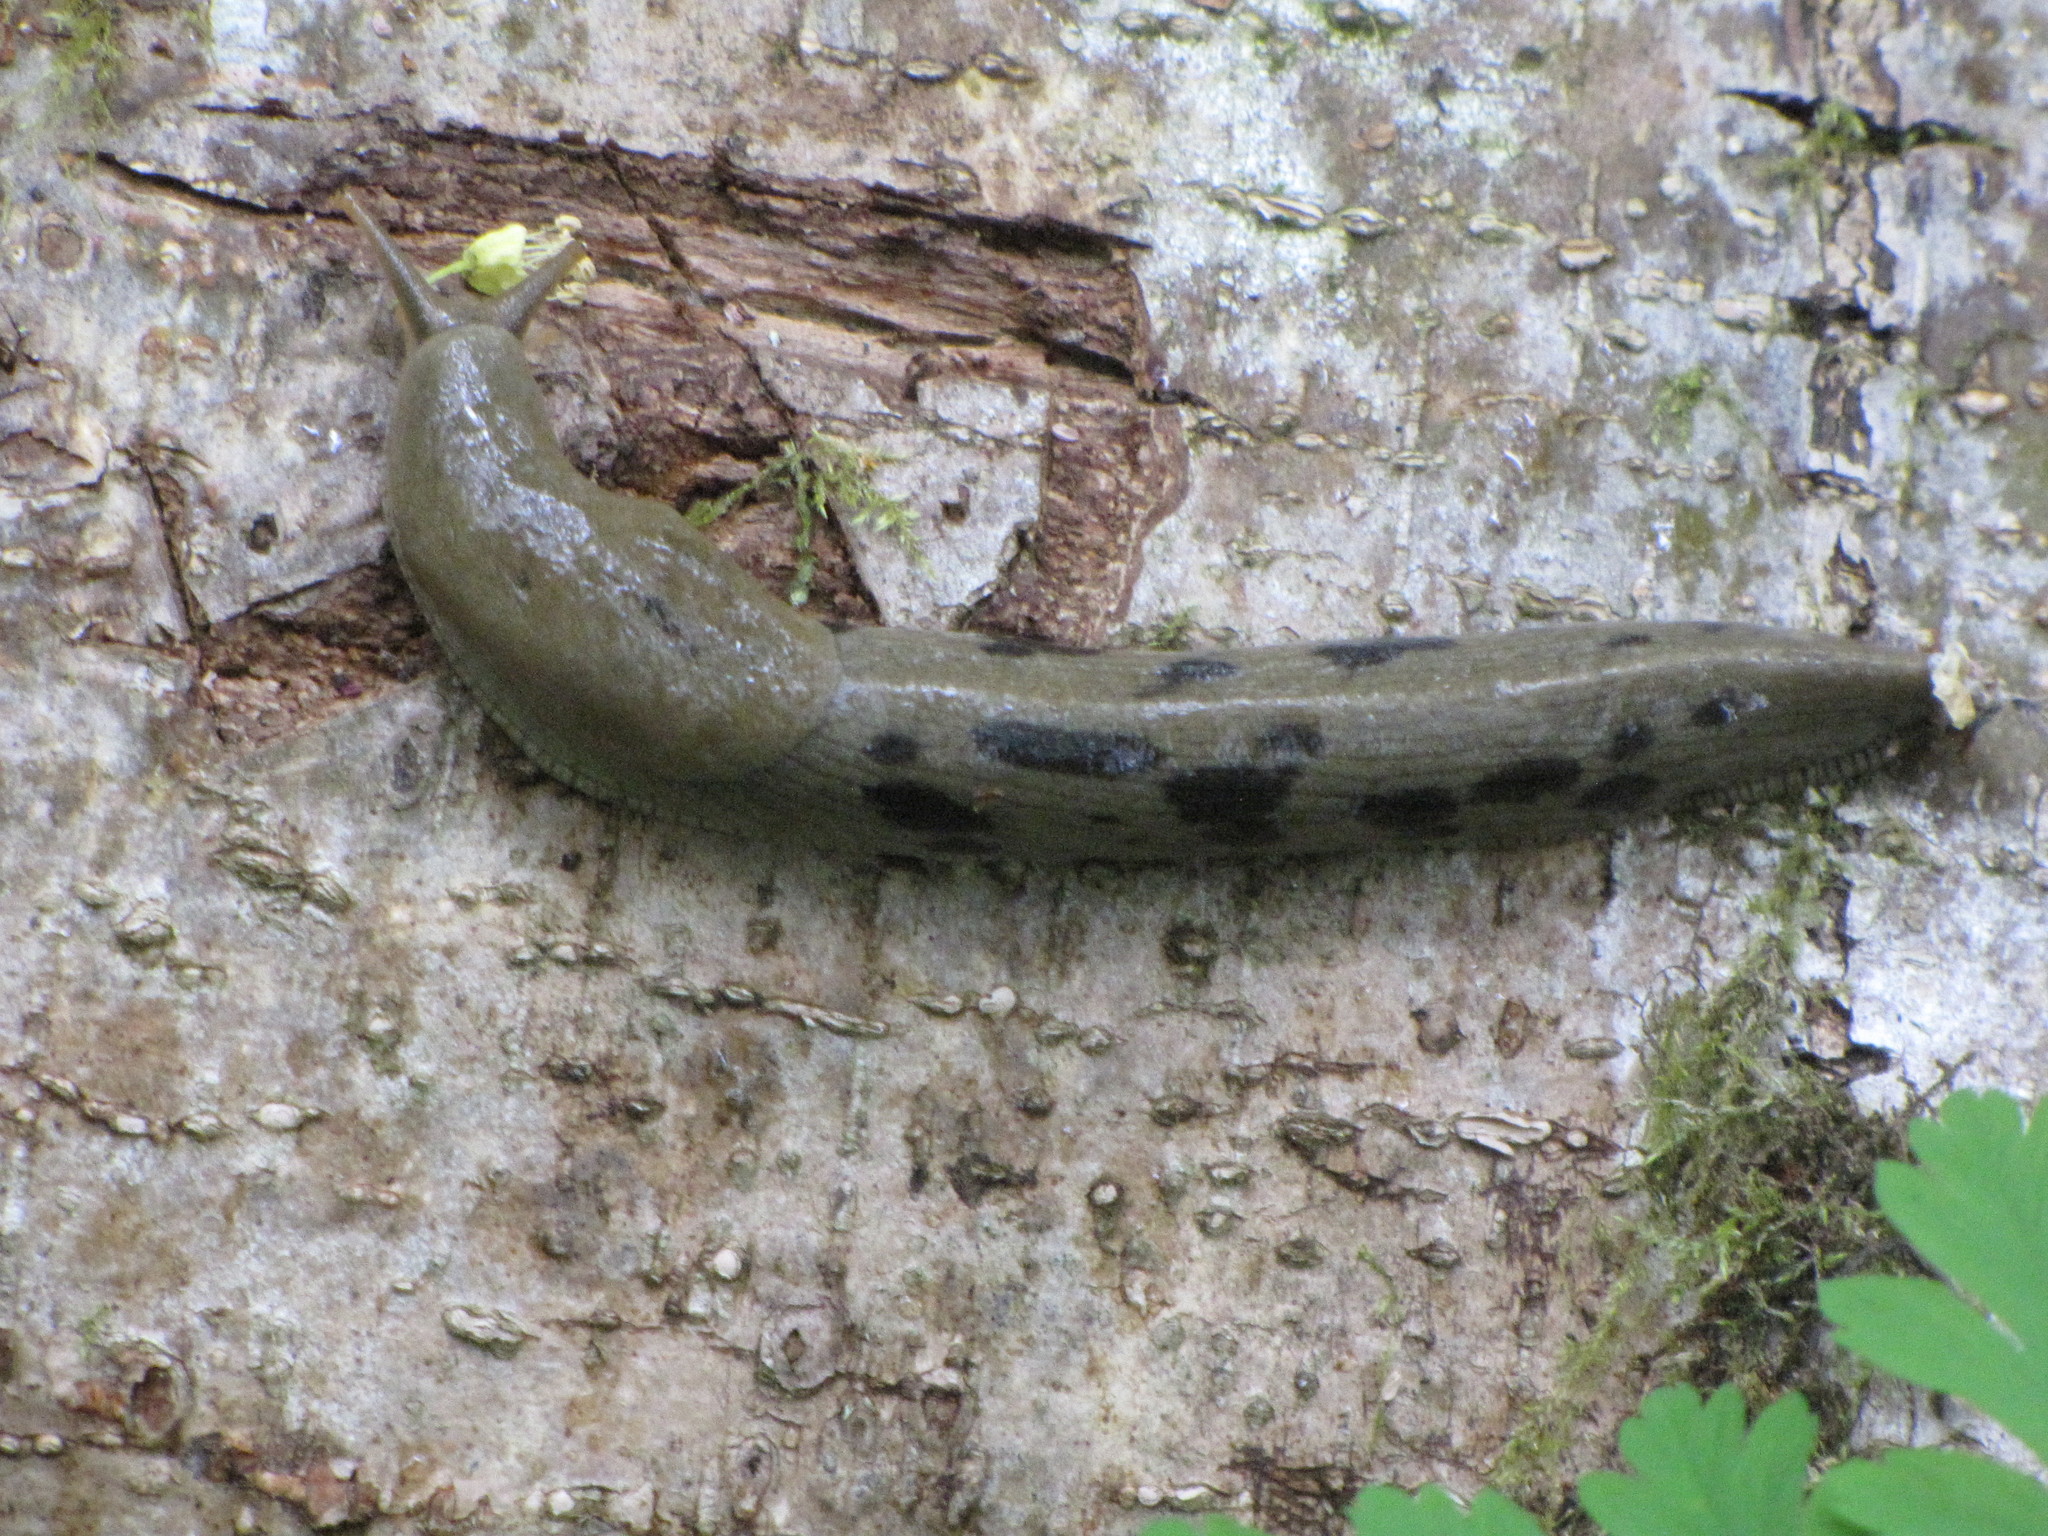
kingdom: Animalia
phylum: Mollusca
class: Gastropoda
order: Stylommatophora
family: Ariolimacidae
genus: Ariolimax
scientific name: Ariolimax columbianus
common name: Pacific banana slug
